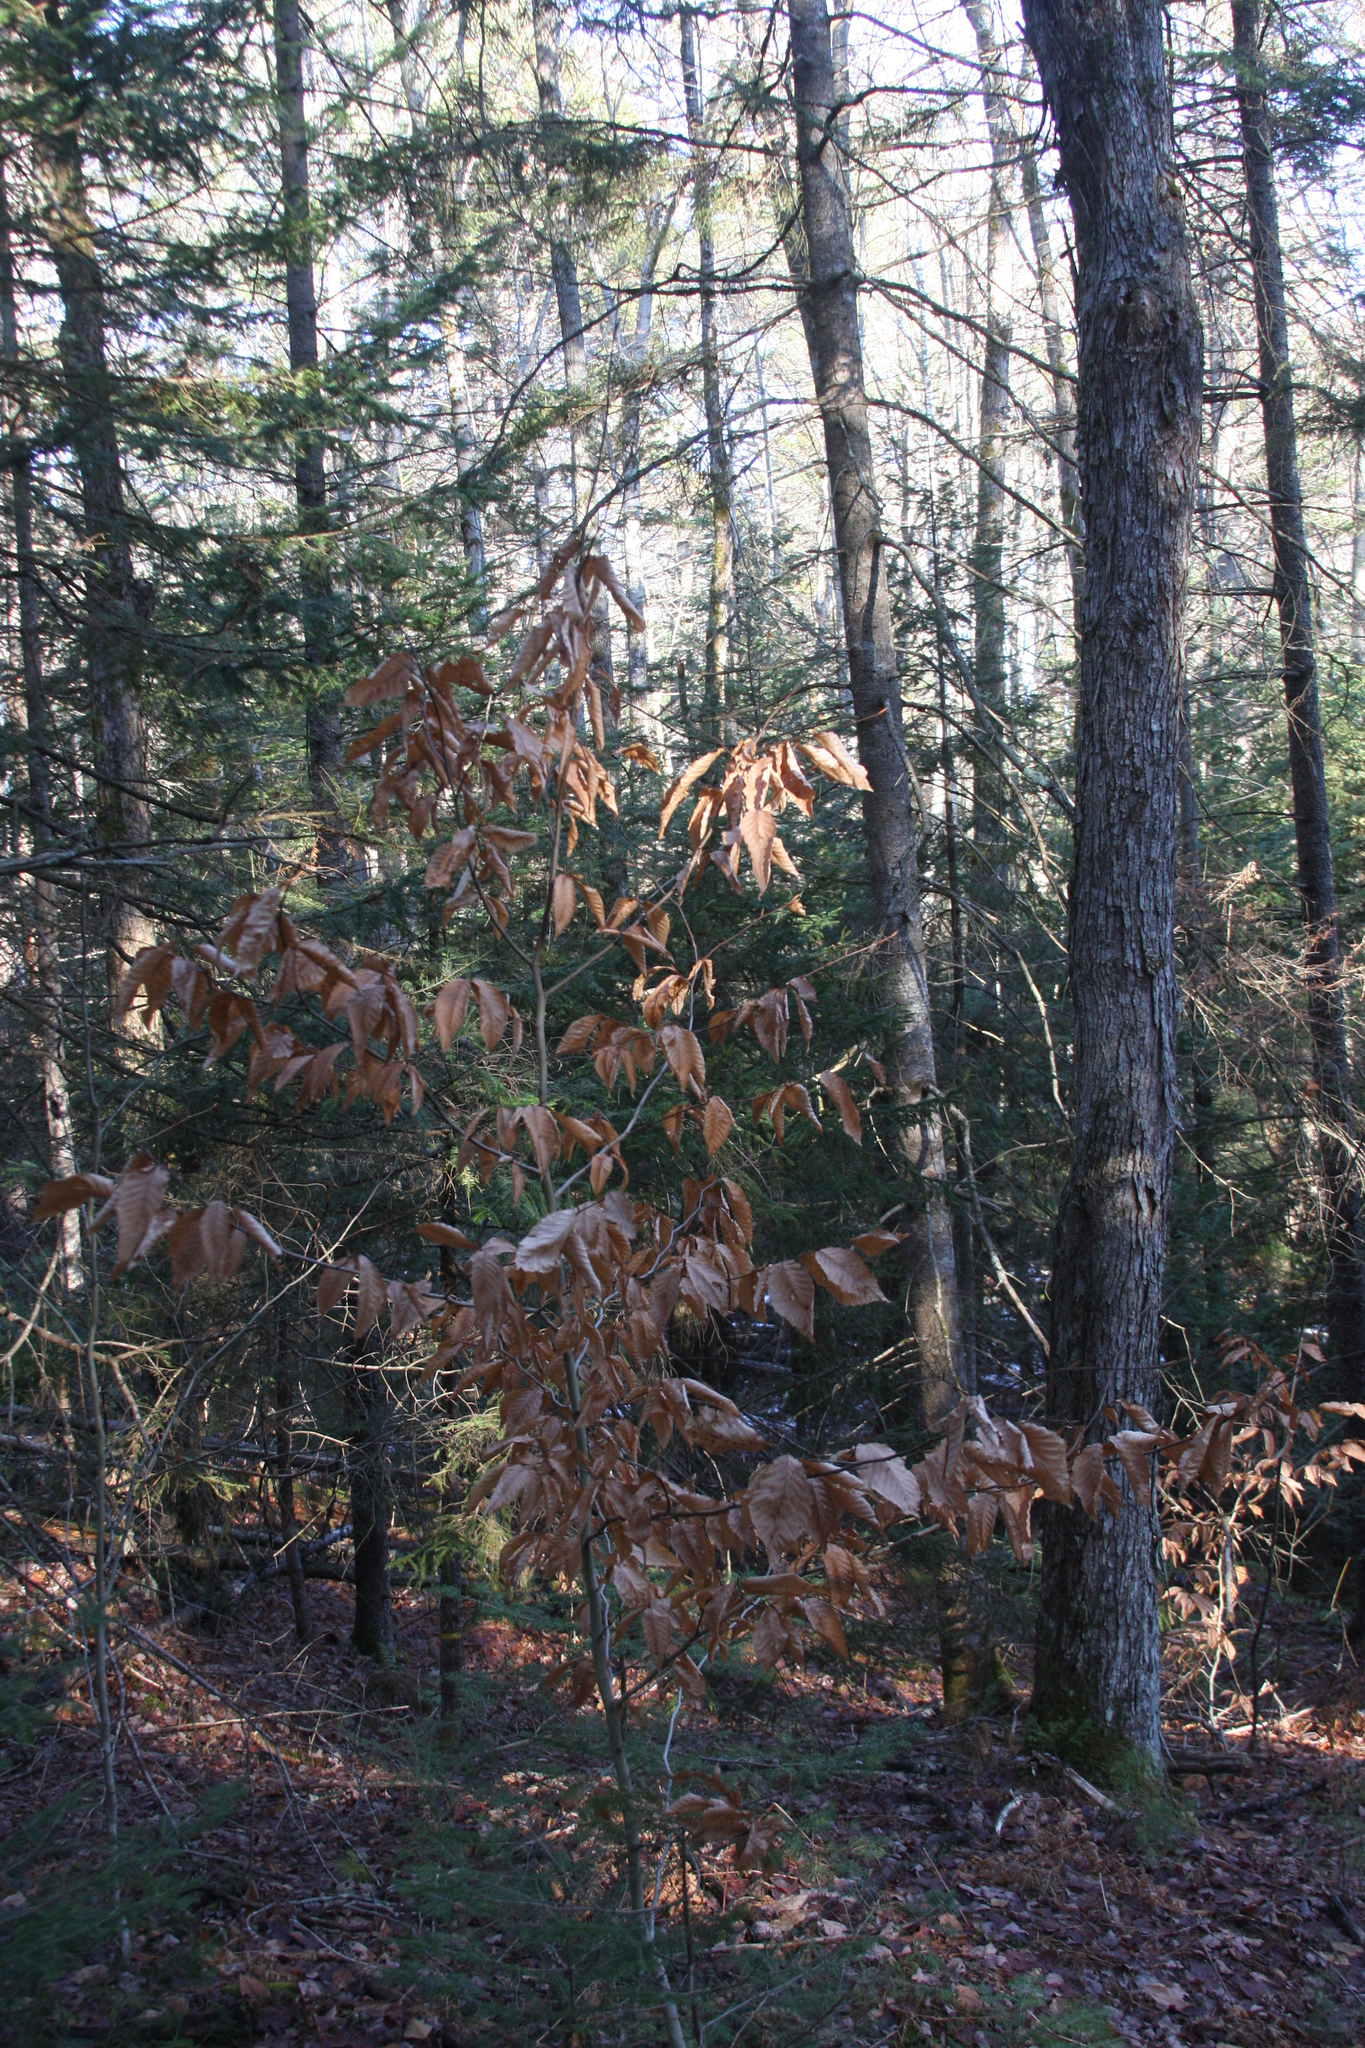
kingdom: Plantae
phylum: Tracheophyta
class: Magnoliopsida
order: Fagales
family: Fagaceae
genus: Fagus
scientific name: Fagus grandifolia
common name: American beech
